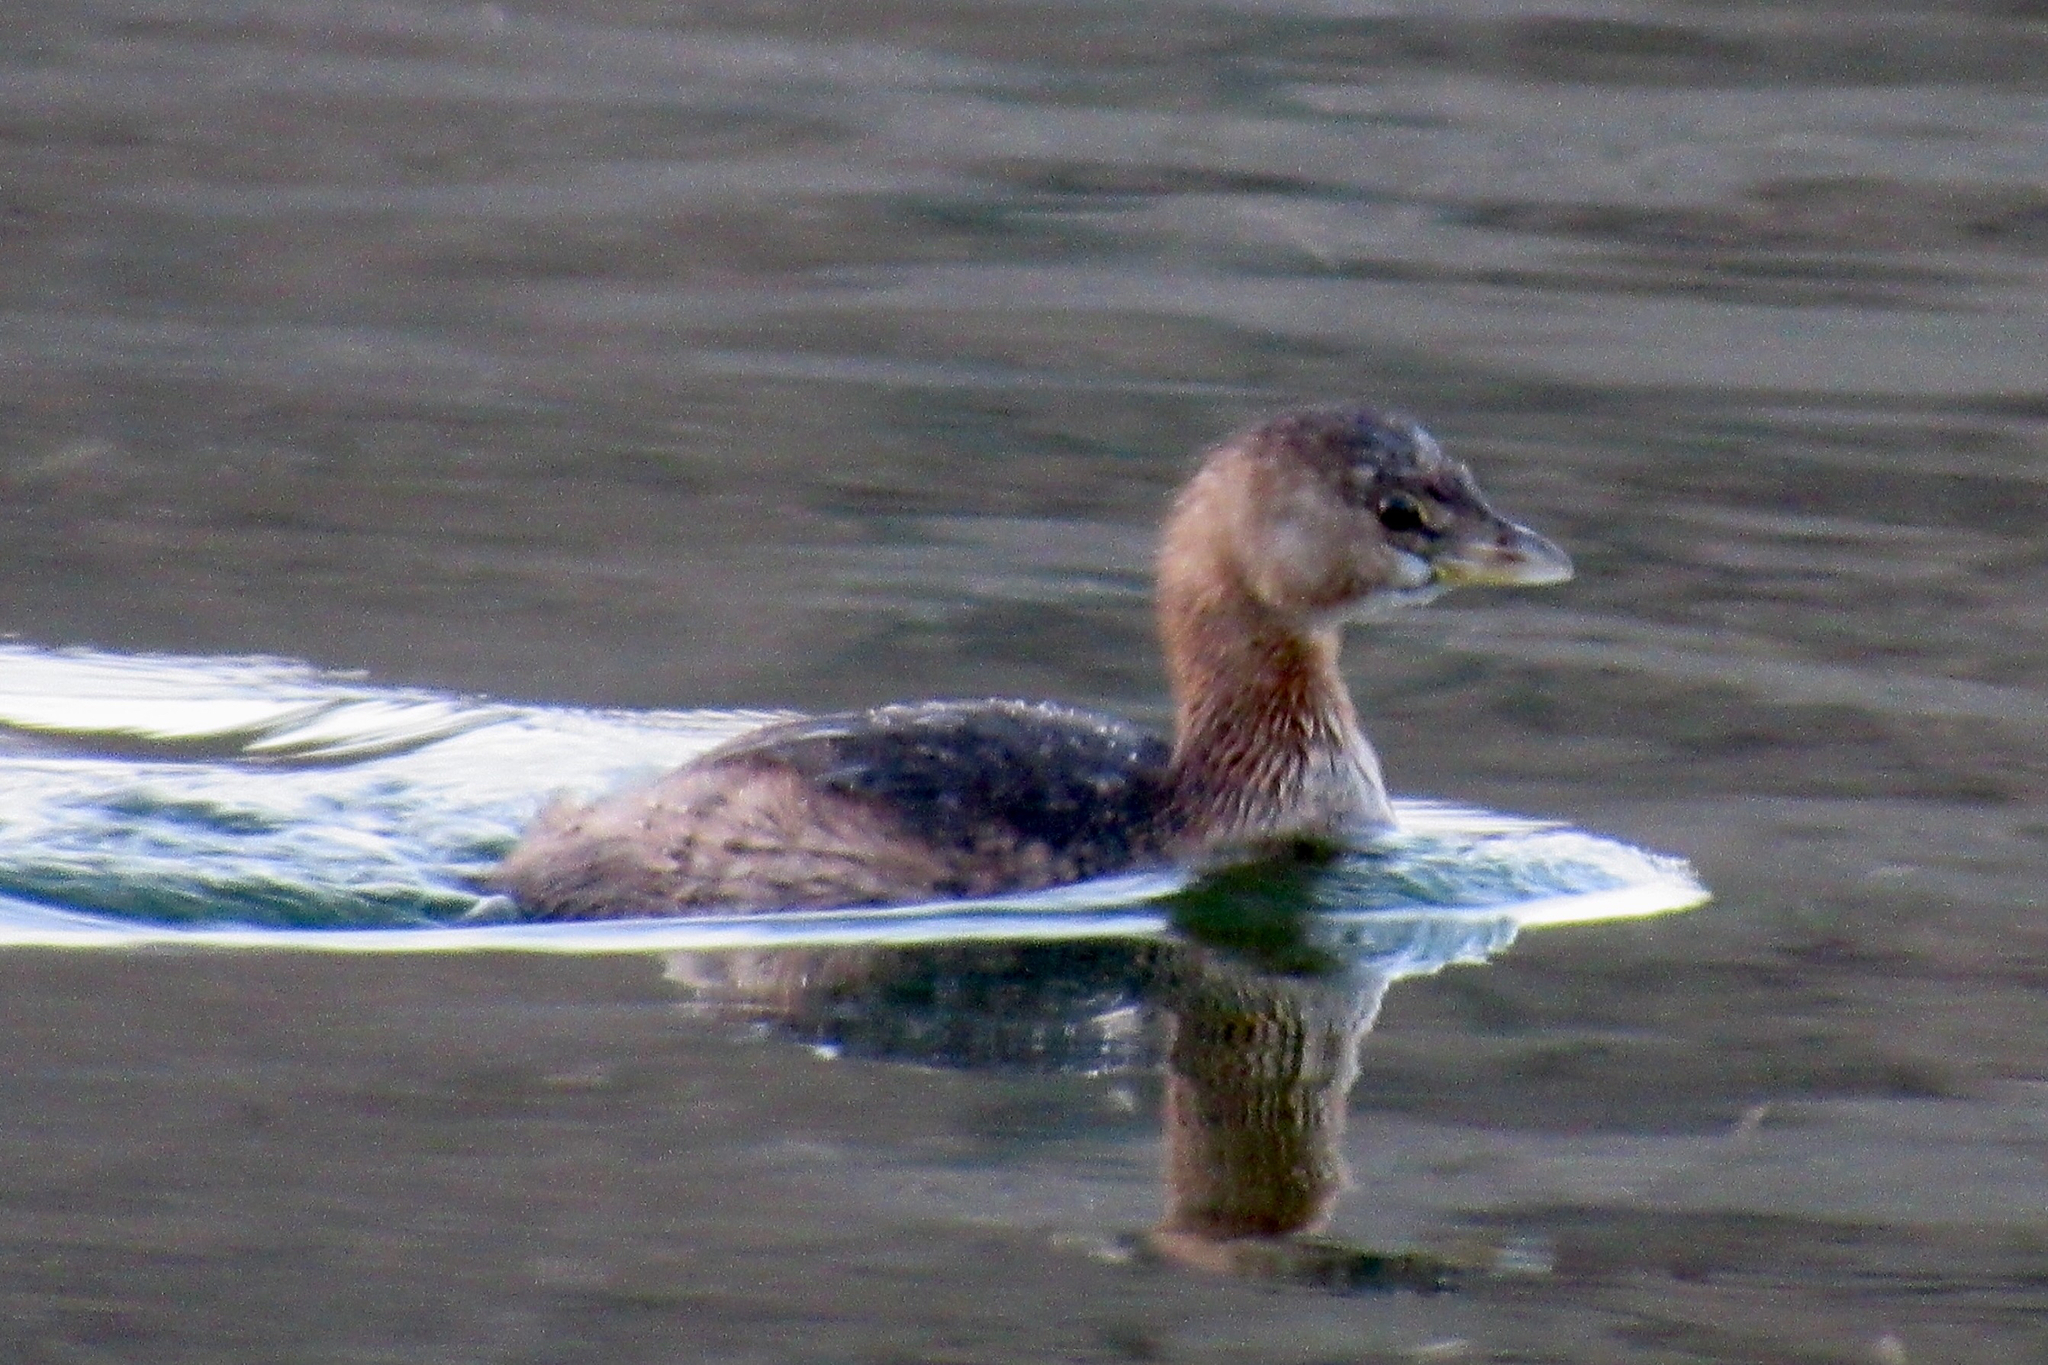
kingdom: Animalia
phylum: Chordata
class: Aves
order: Podicipediformes
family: Podicipedidae
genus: Podilymbus
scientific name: Podilymbus podiceps
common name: Pied-billed grebe
